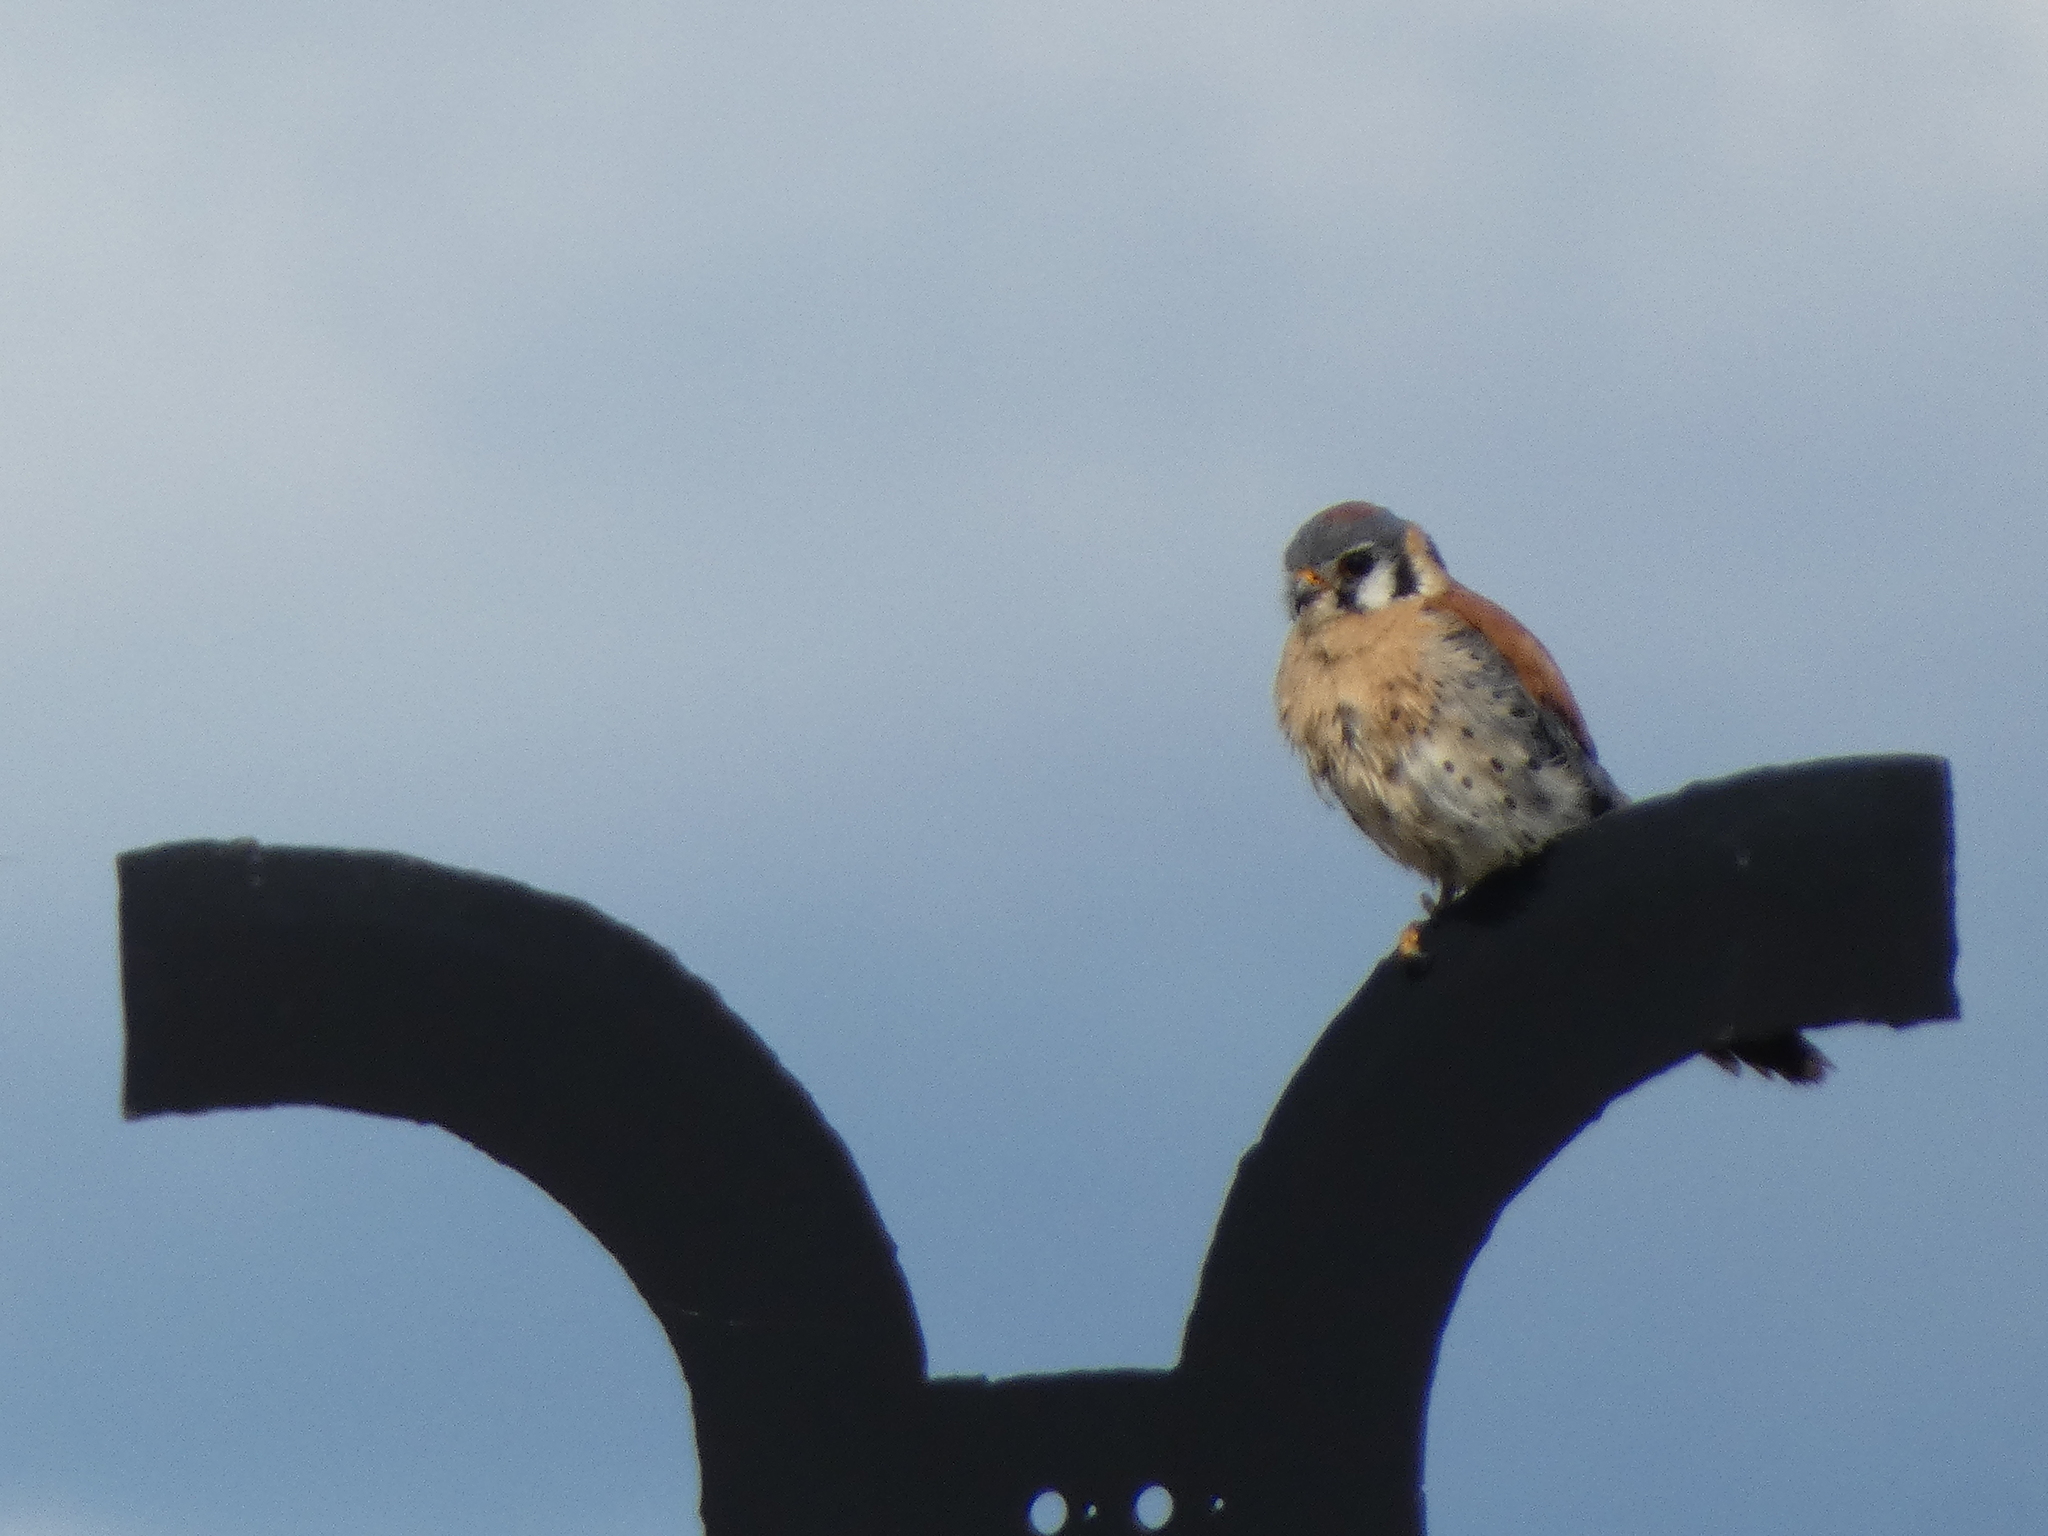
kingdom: Animalia
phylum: Chordata
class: Aves
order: Falconiformes
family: Falconidae
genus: Falco
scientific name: Falco sparverius
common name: American kestrel
